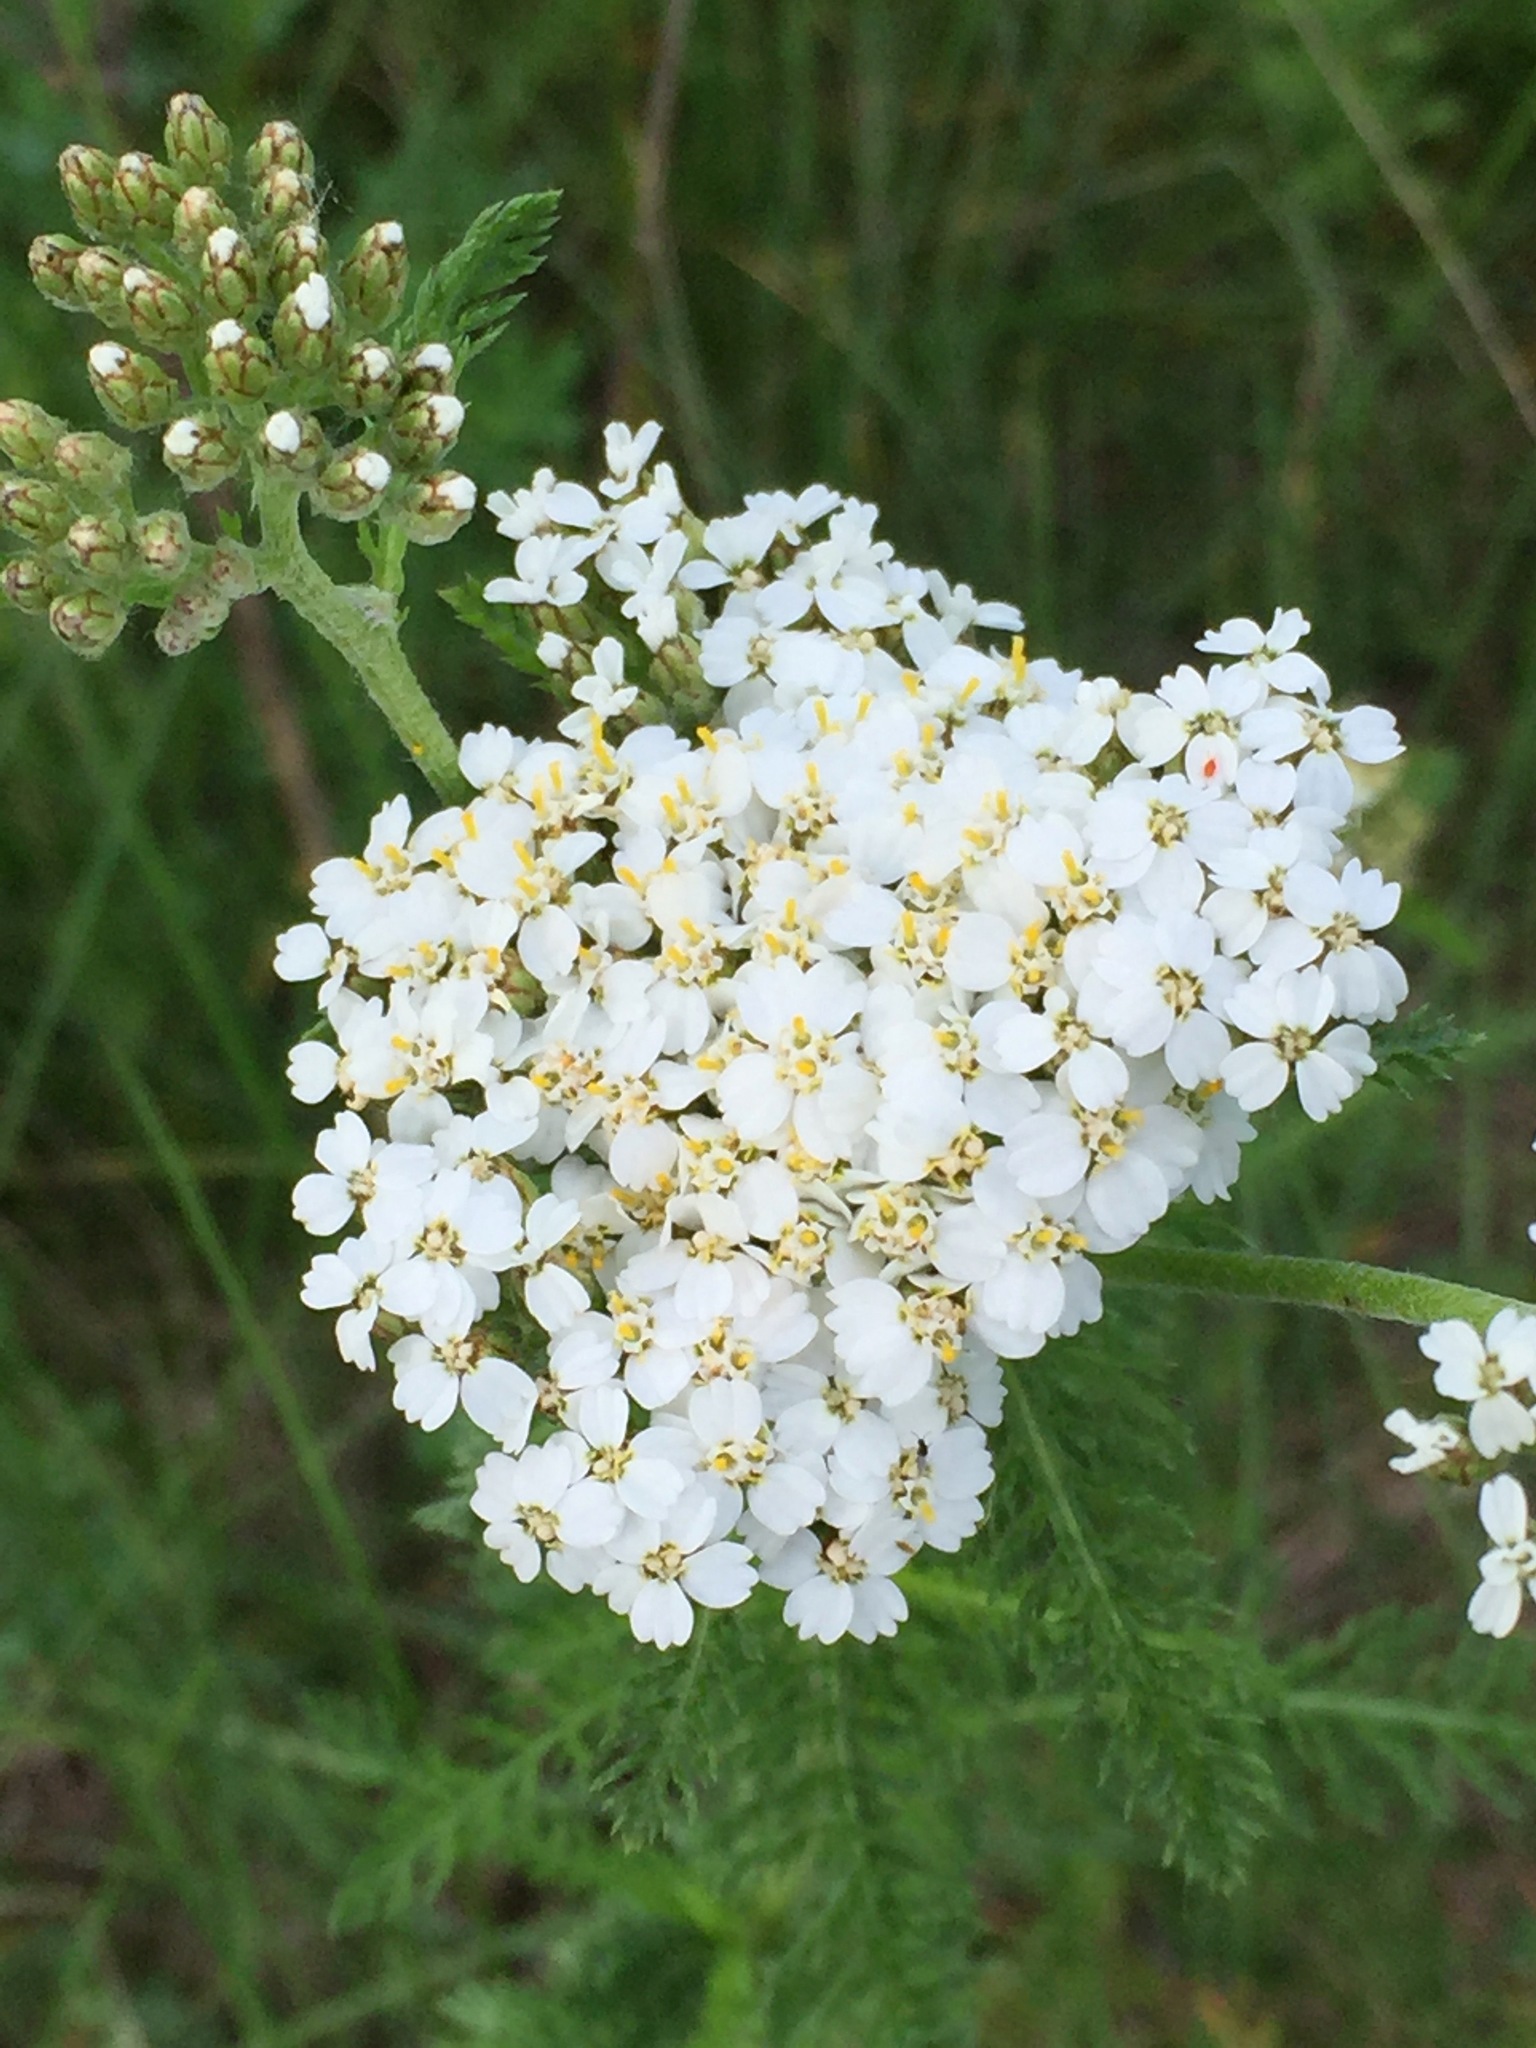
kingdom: Plantae
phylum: Tracheophyta
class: Magnoliopsida
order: Asterales
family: Asteraceae
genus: Achillea
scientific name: Achillea millefolium
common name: Yarrow
